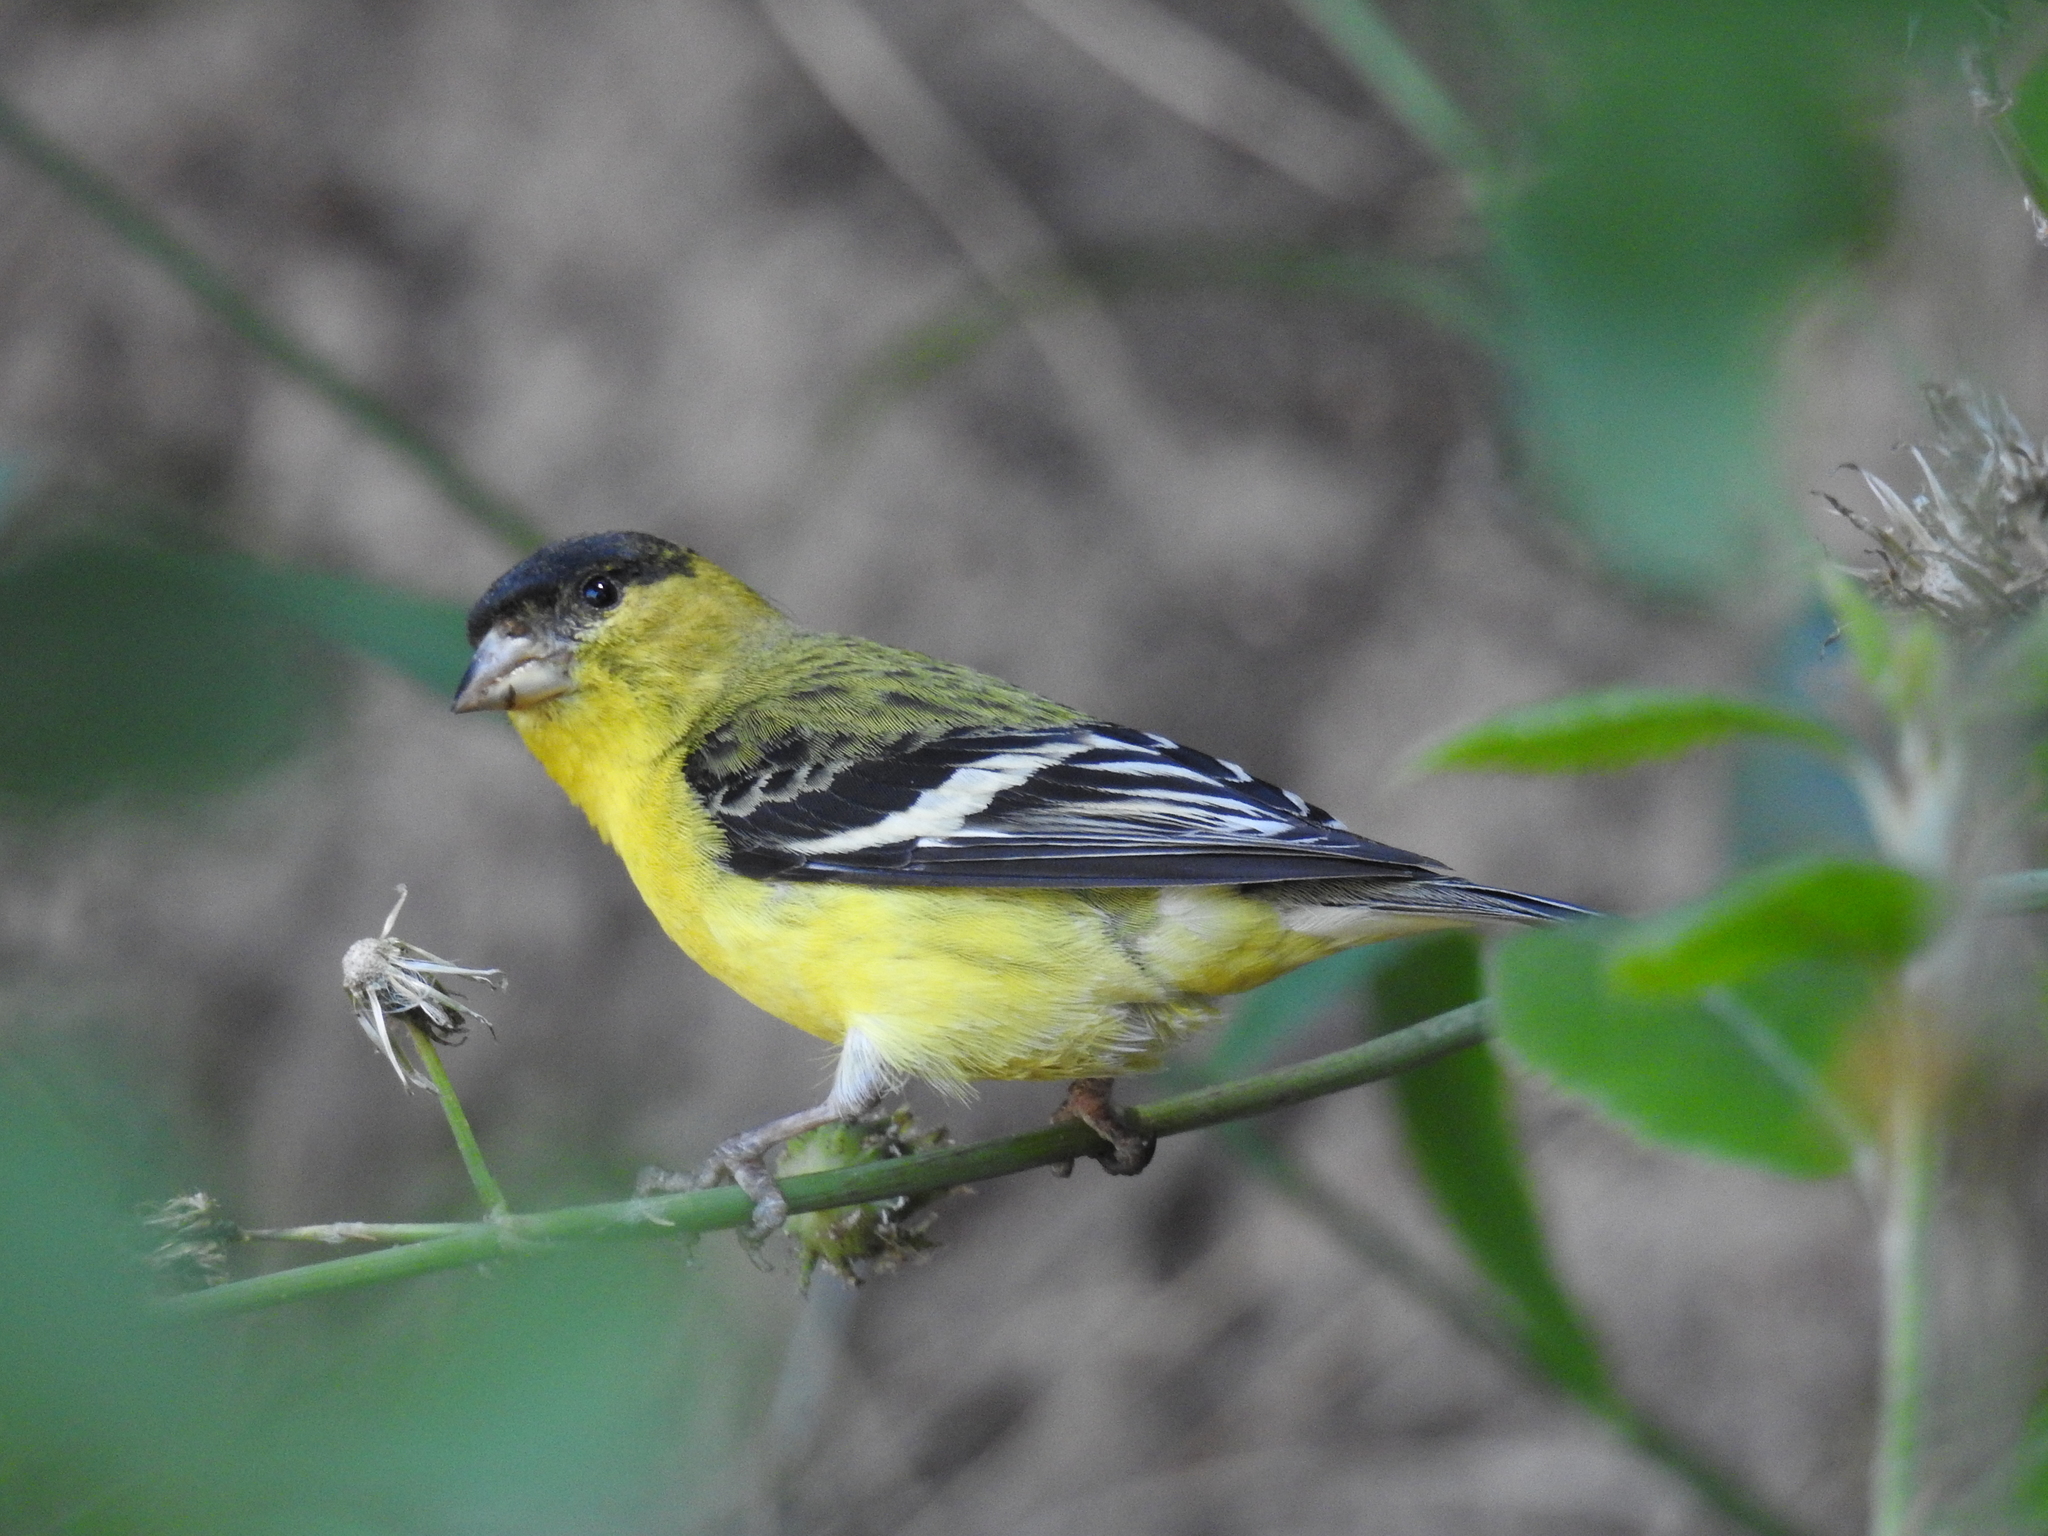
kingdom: Animalia
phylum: Chordata
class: Aves
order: Passeriformes
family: Fringillidae
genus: Spinus
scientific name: Spinus psaltria
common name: Lesser goldfinch
